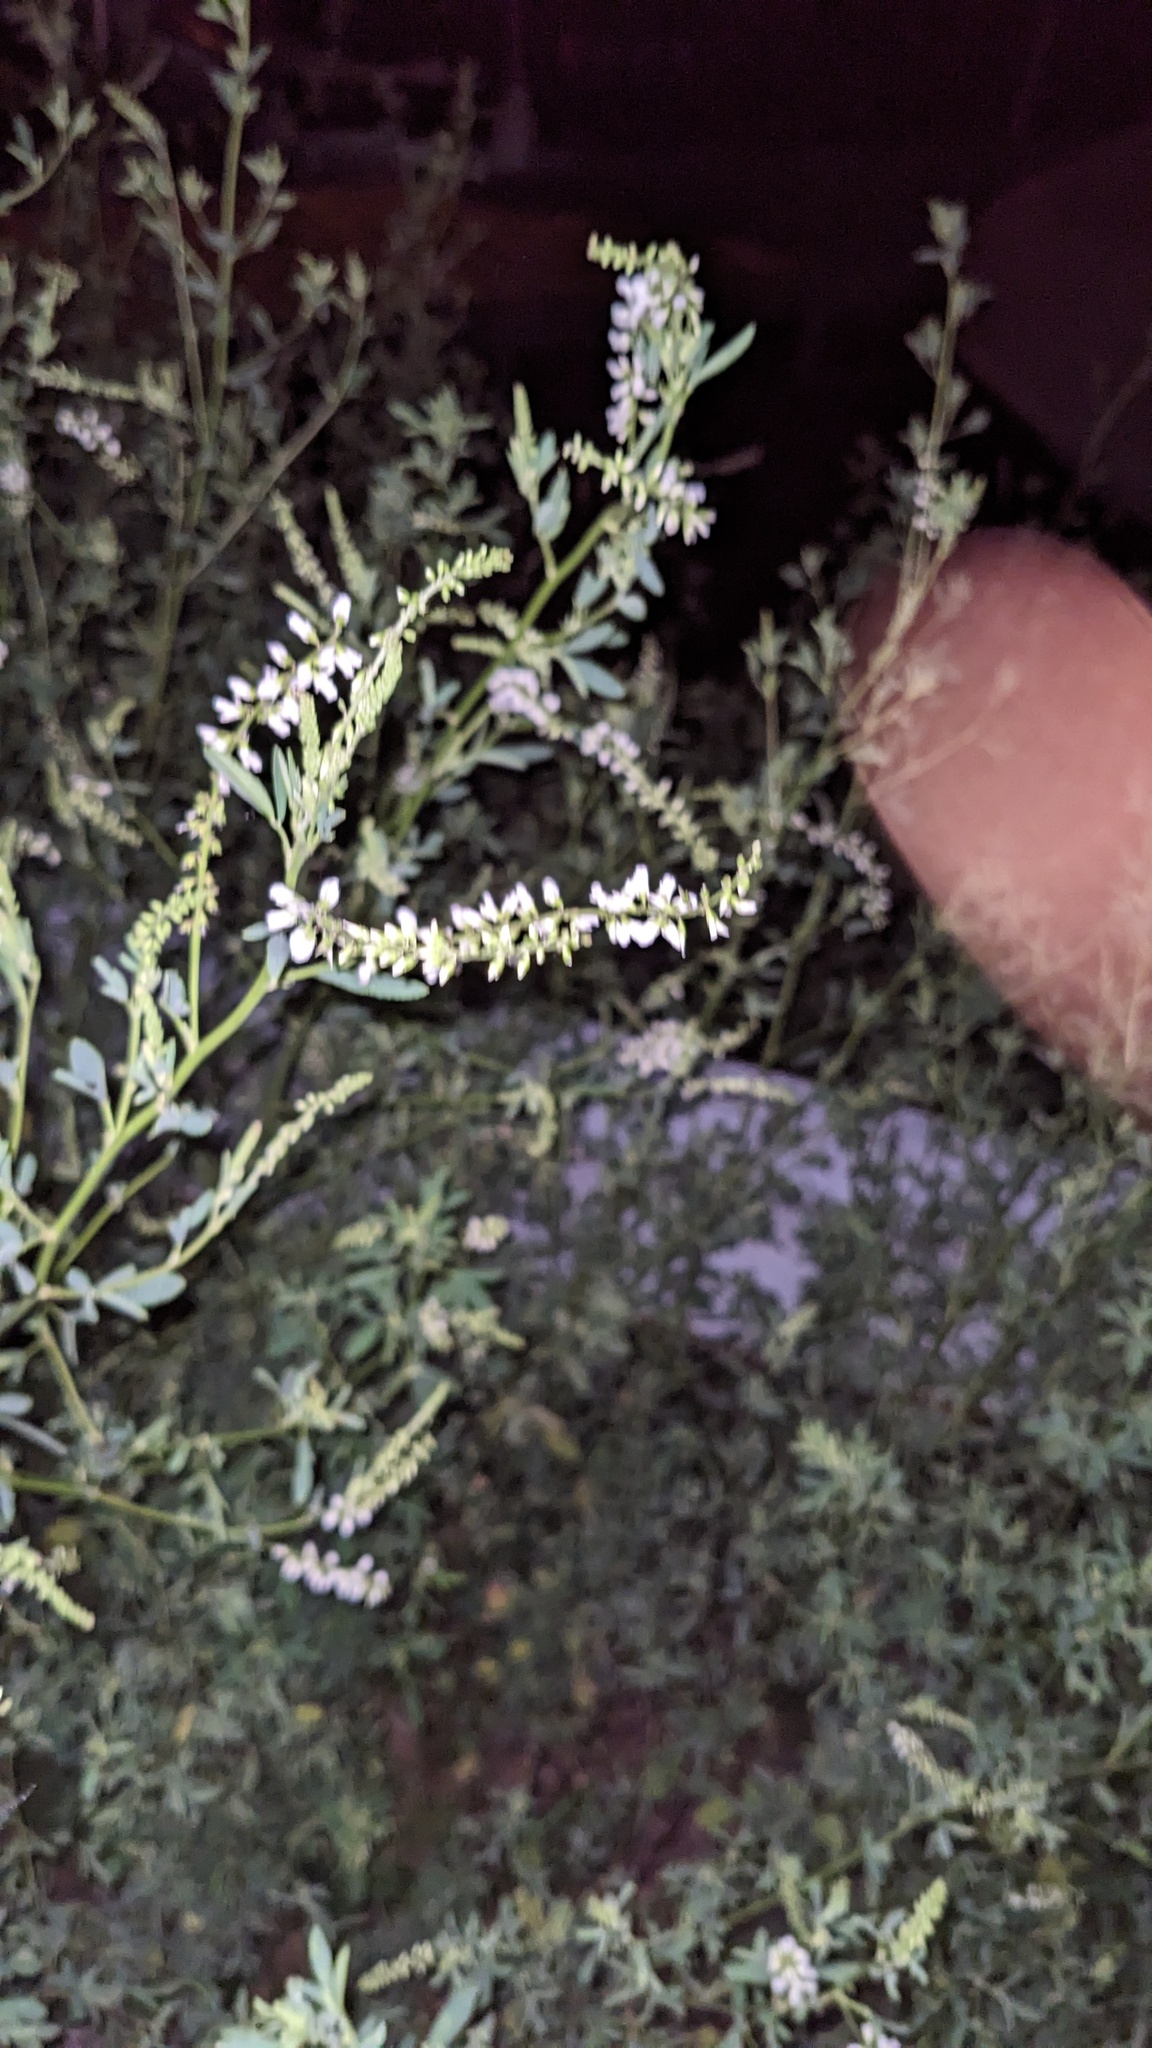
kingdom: Plantae
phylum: Tracheophyta
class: Magnoliopsida
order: Fabales
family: Fabaceae
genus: Melilotus
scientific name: Melilotus albus
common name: White melilot
